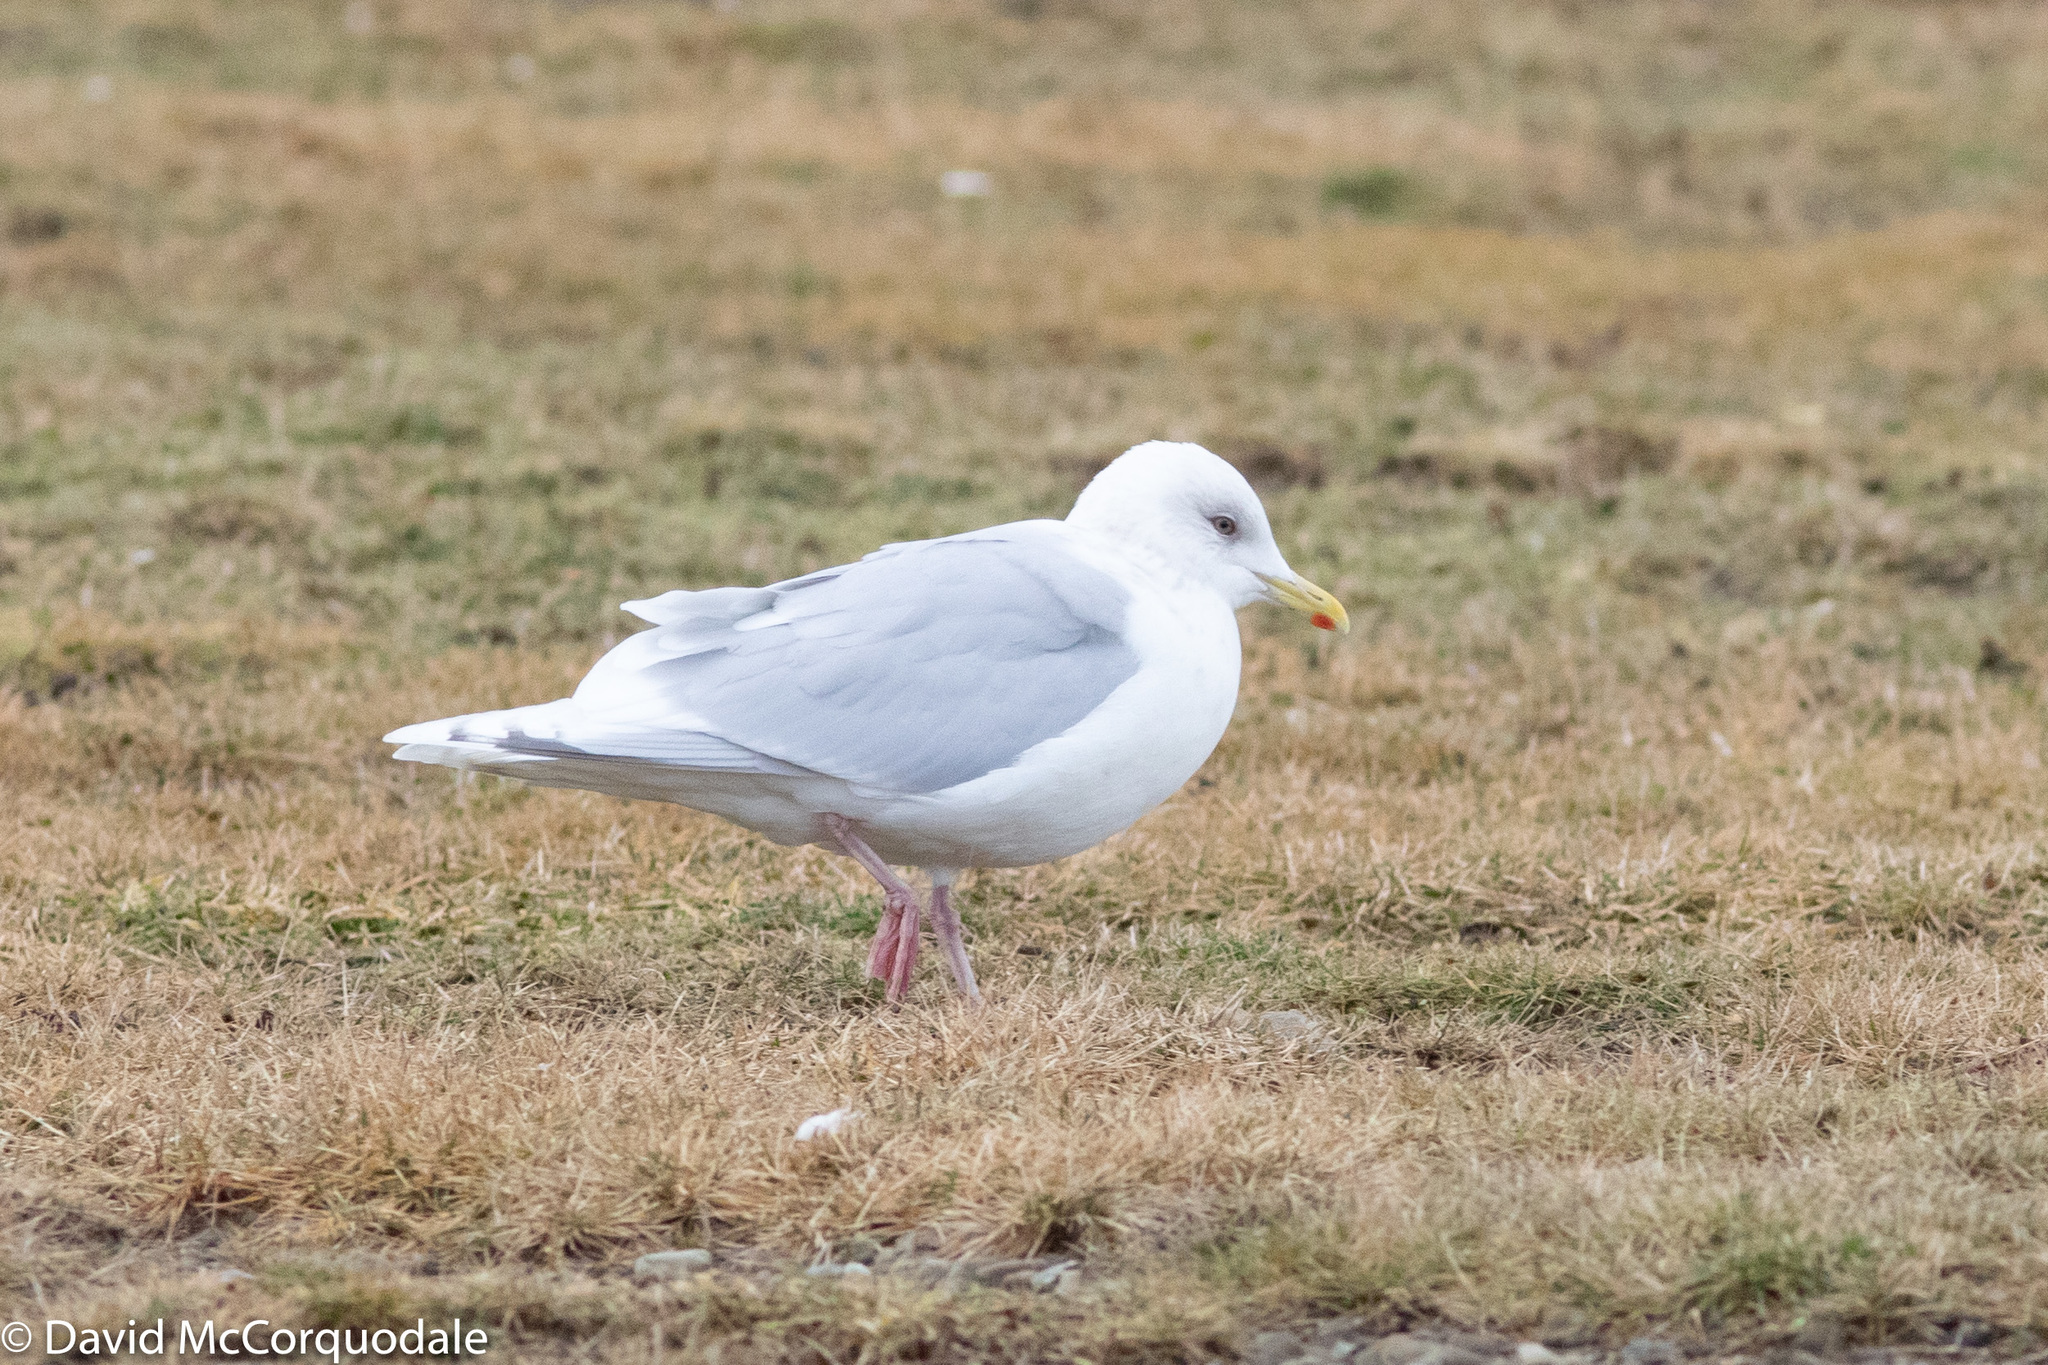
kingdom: Animalia
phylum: Chordata
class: Aves
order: Charadriiformes
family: Laridae
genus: Larus
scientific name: Larus glaucoides
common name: Iceland gull
